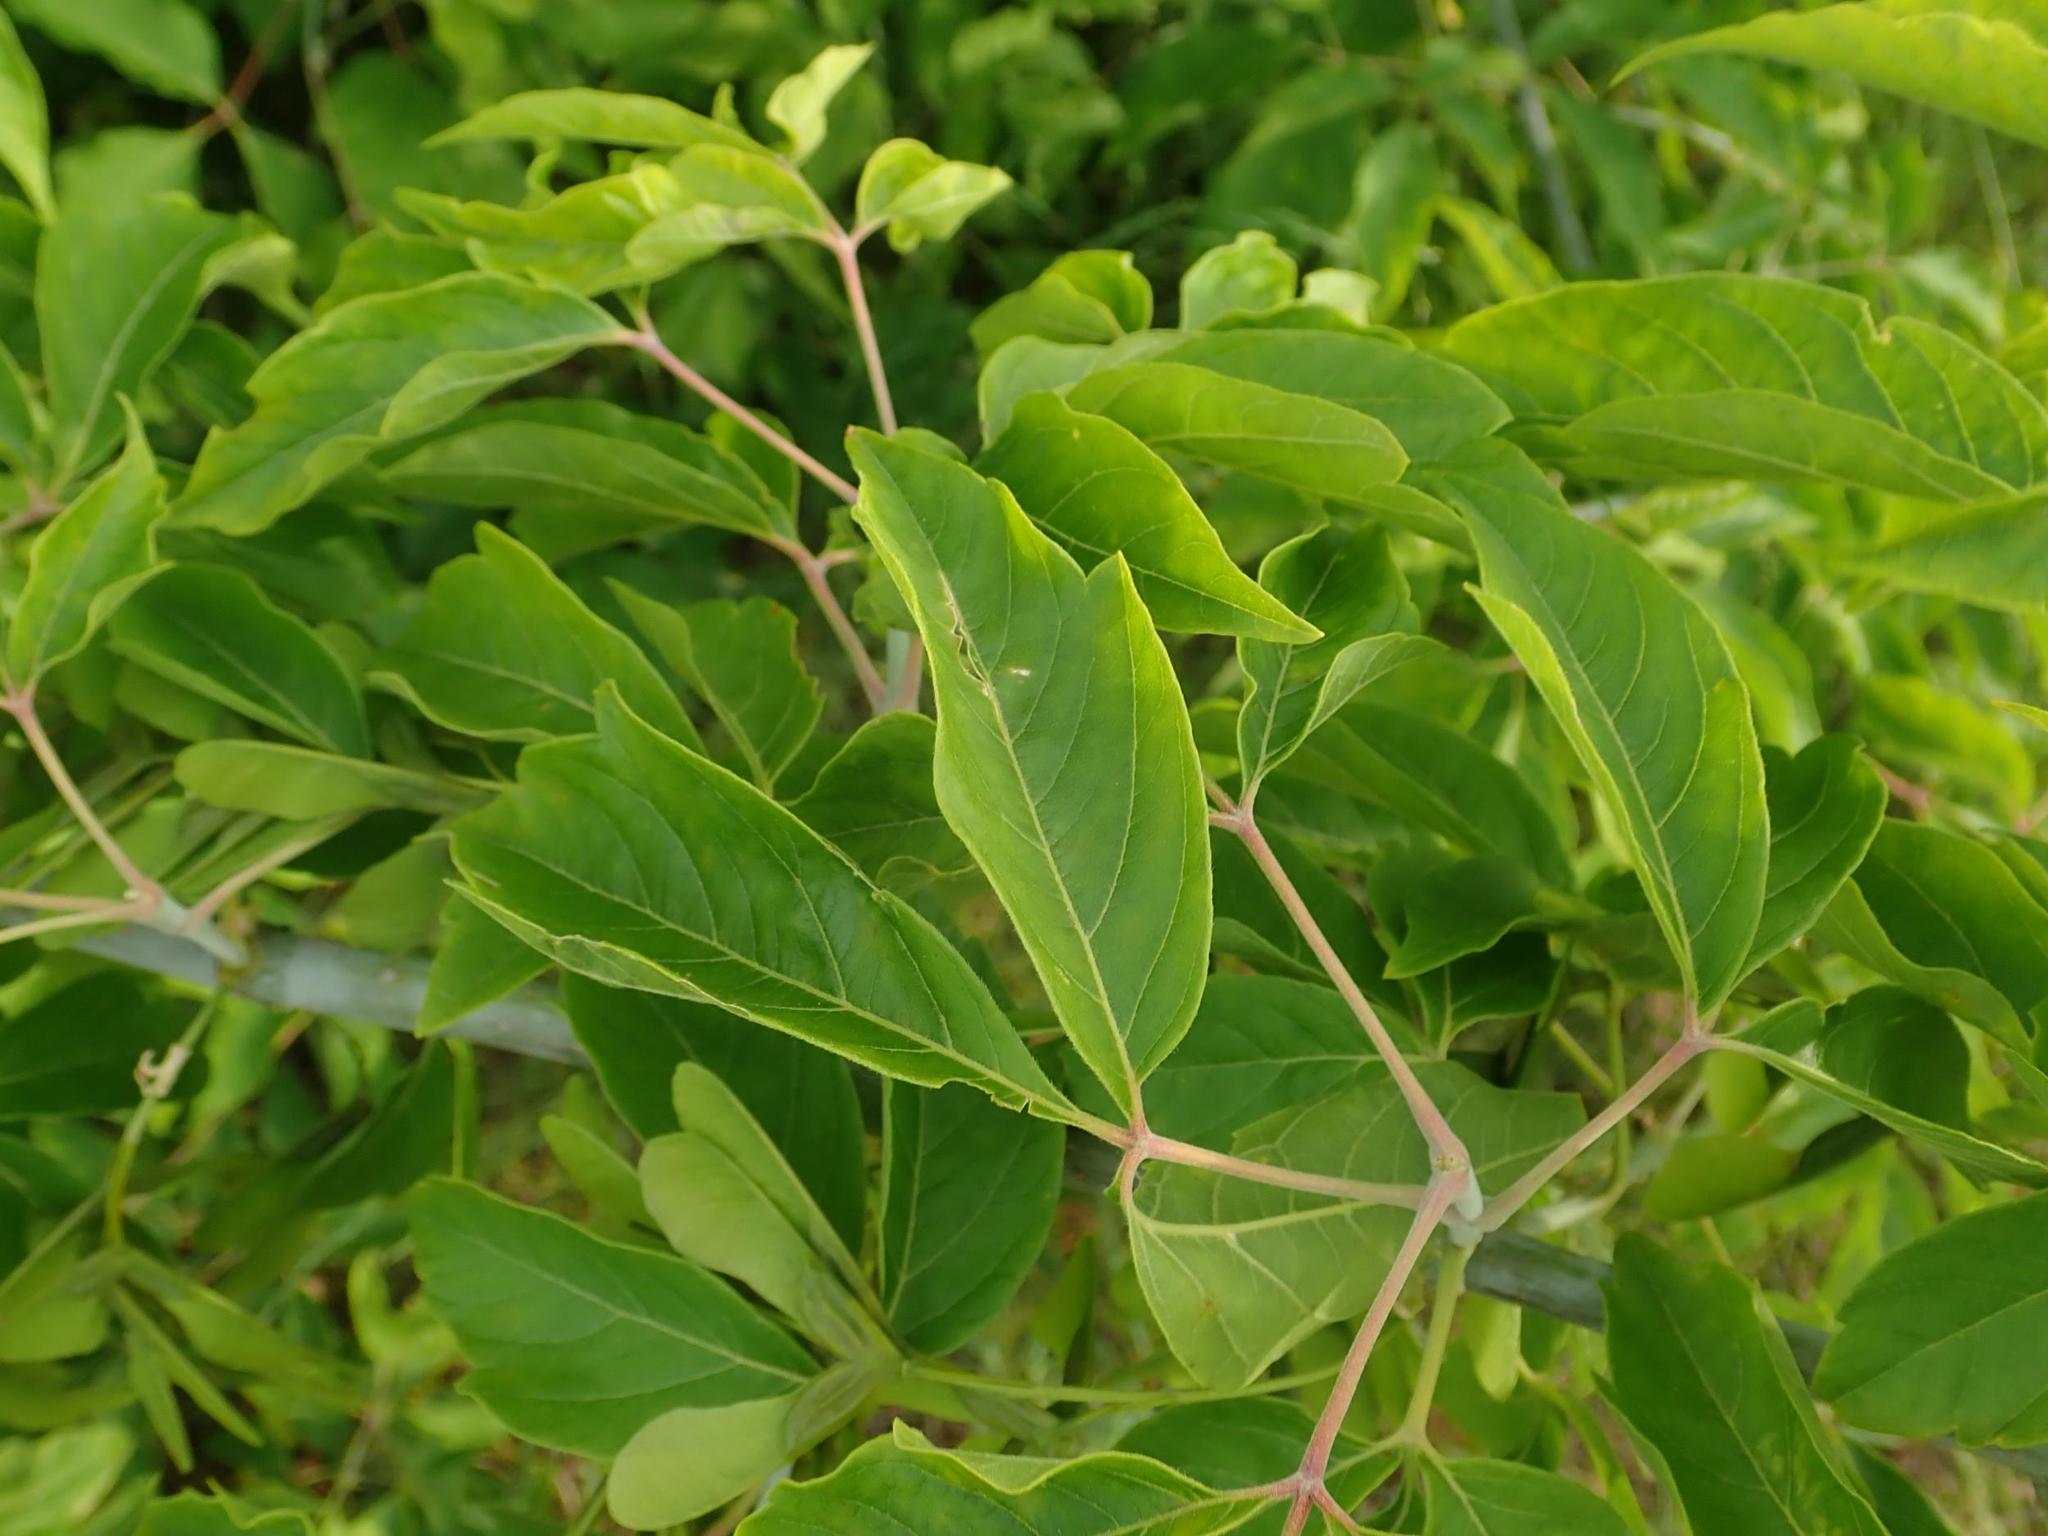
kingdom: Plantae
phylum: Tracheophyta
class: Magnoliopsida
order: Sapindales
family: Sapindaceae
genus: Acer
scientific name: Acer negundo
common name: Ashleaf maple
